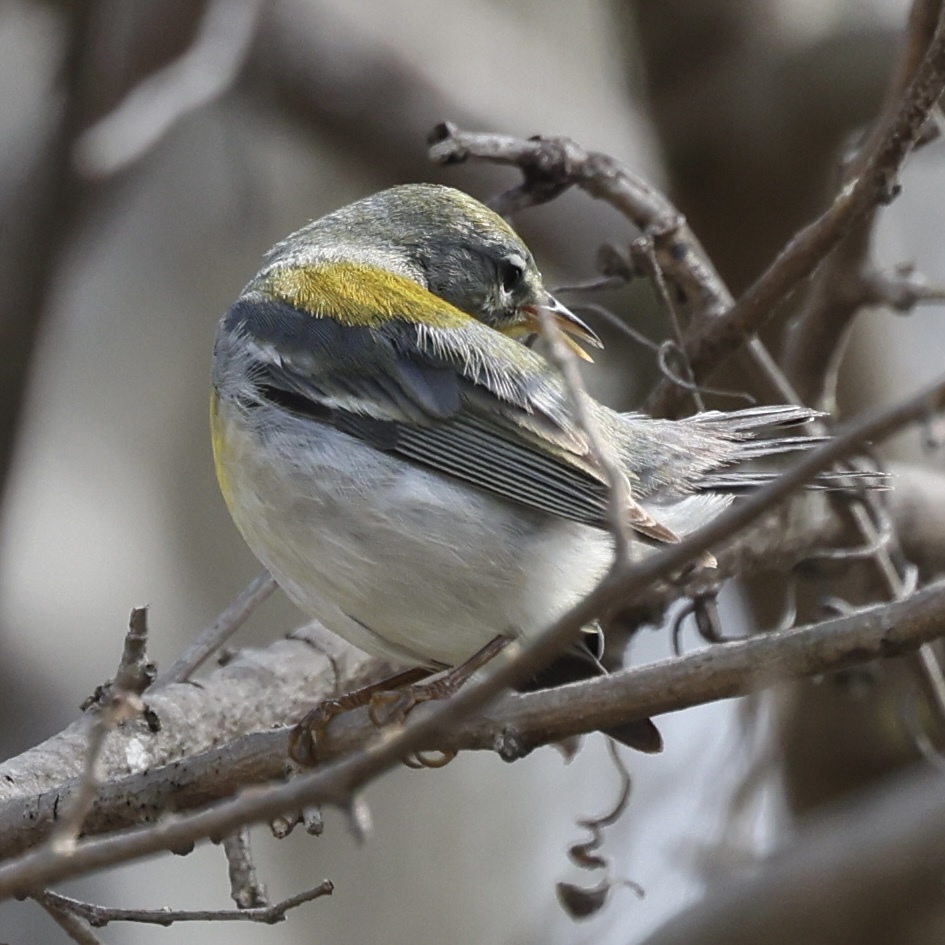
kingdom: Animalia
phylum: Chordata
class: Aves
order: Passeriformes
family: Parulidae
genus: Setophaga
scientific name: Setophaga americana
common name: Northern parula
